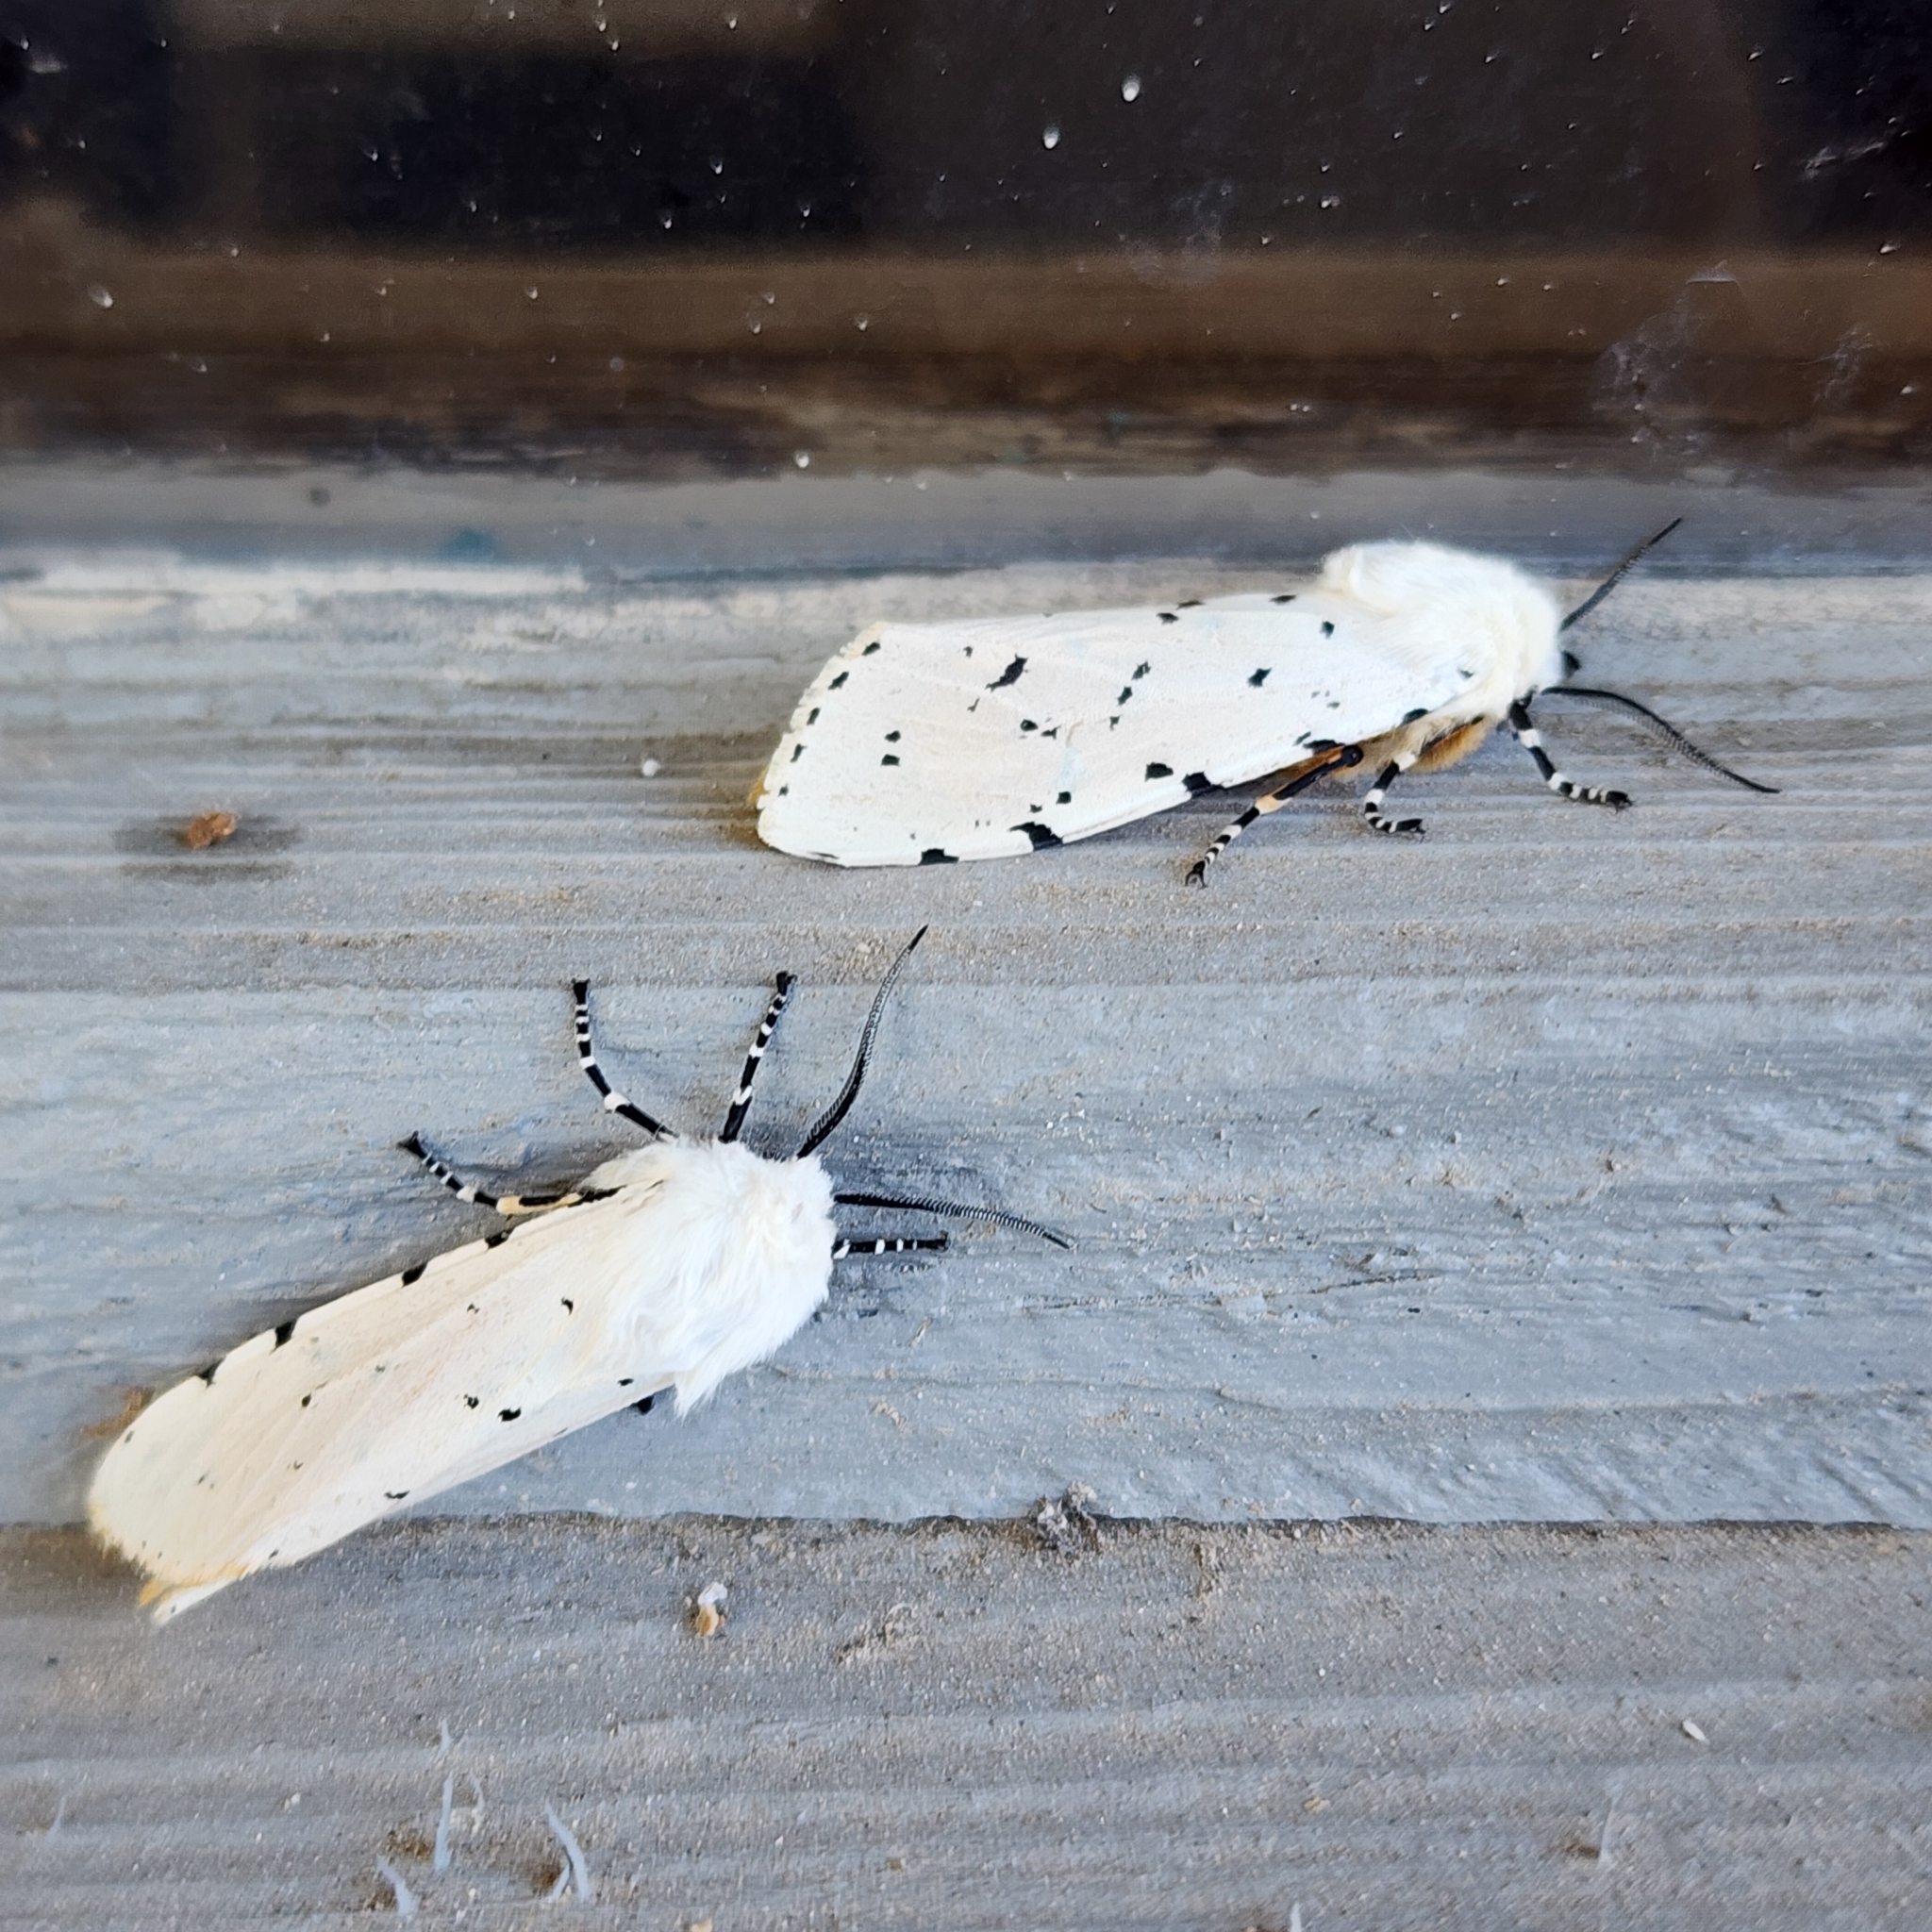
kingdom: Animalia
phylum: Arthropoda
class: Insecta
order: Lepidoptera
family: Erebidae
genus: Estigmene
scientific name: Estigmene acrea
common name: Salt marsh moth
